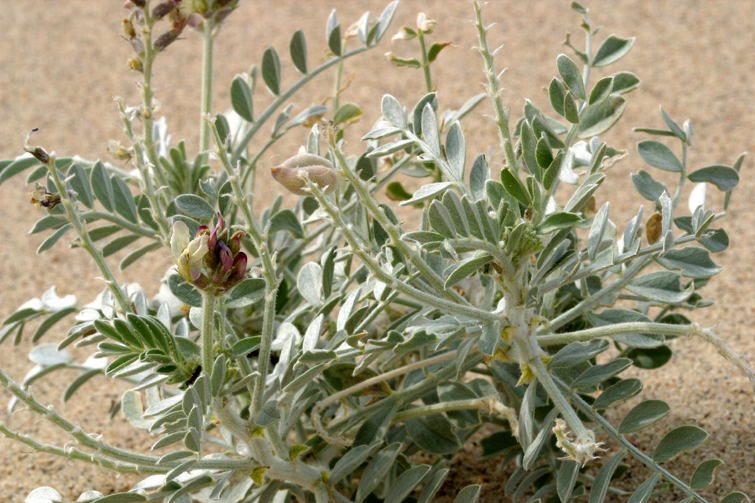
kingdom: Plantae
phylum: Tracheophyta
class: Magnoliopsida
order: Fabales
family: Fabaceae
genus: Astragalus
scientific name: Astragalus lentiginosus
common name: Freckled milkvetch
